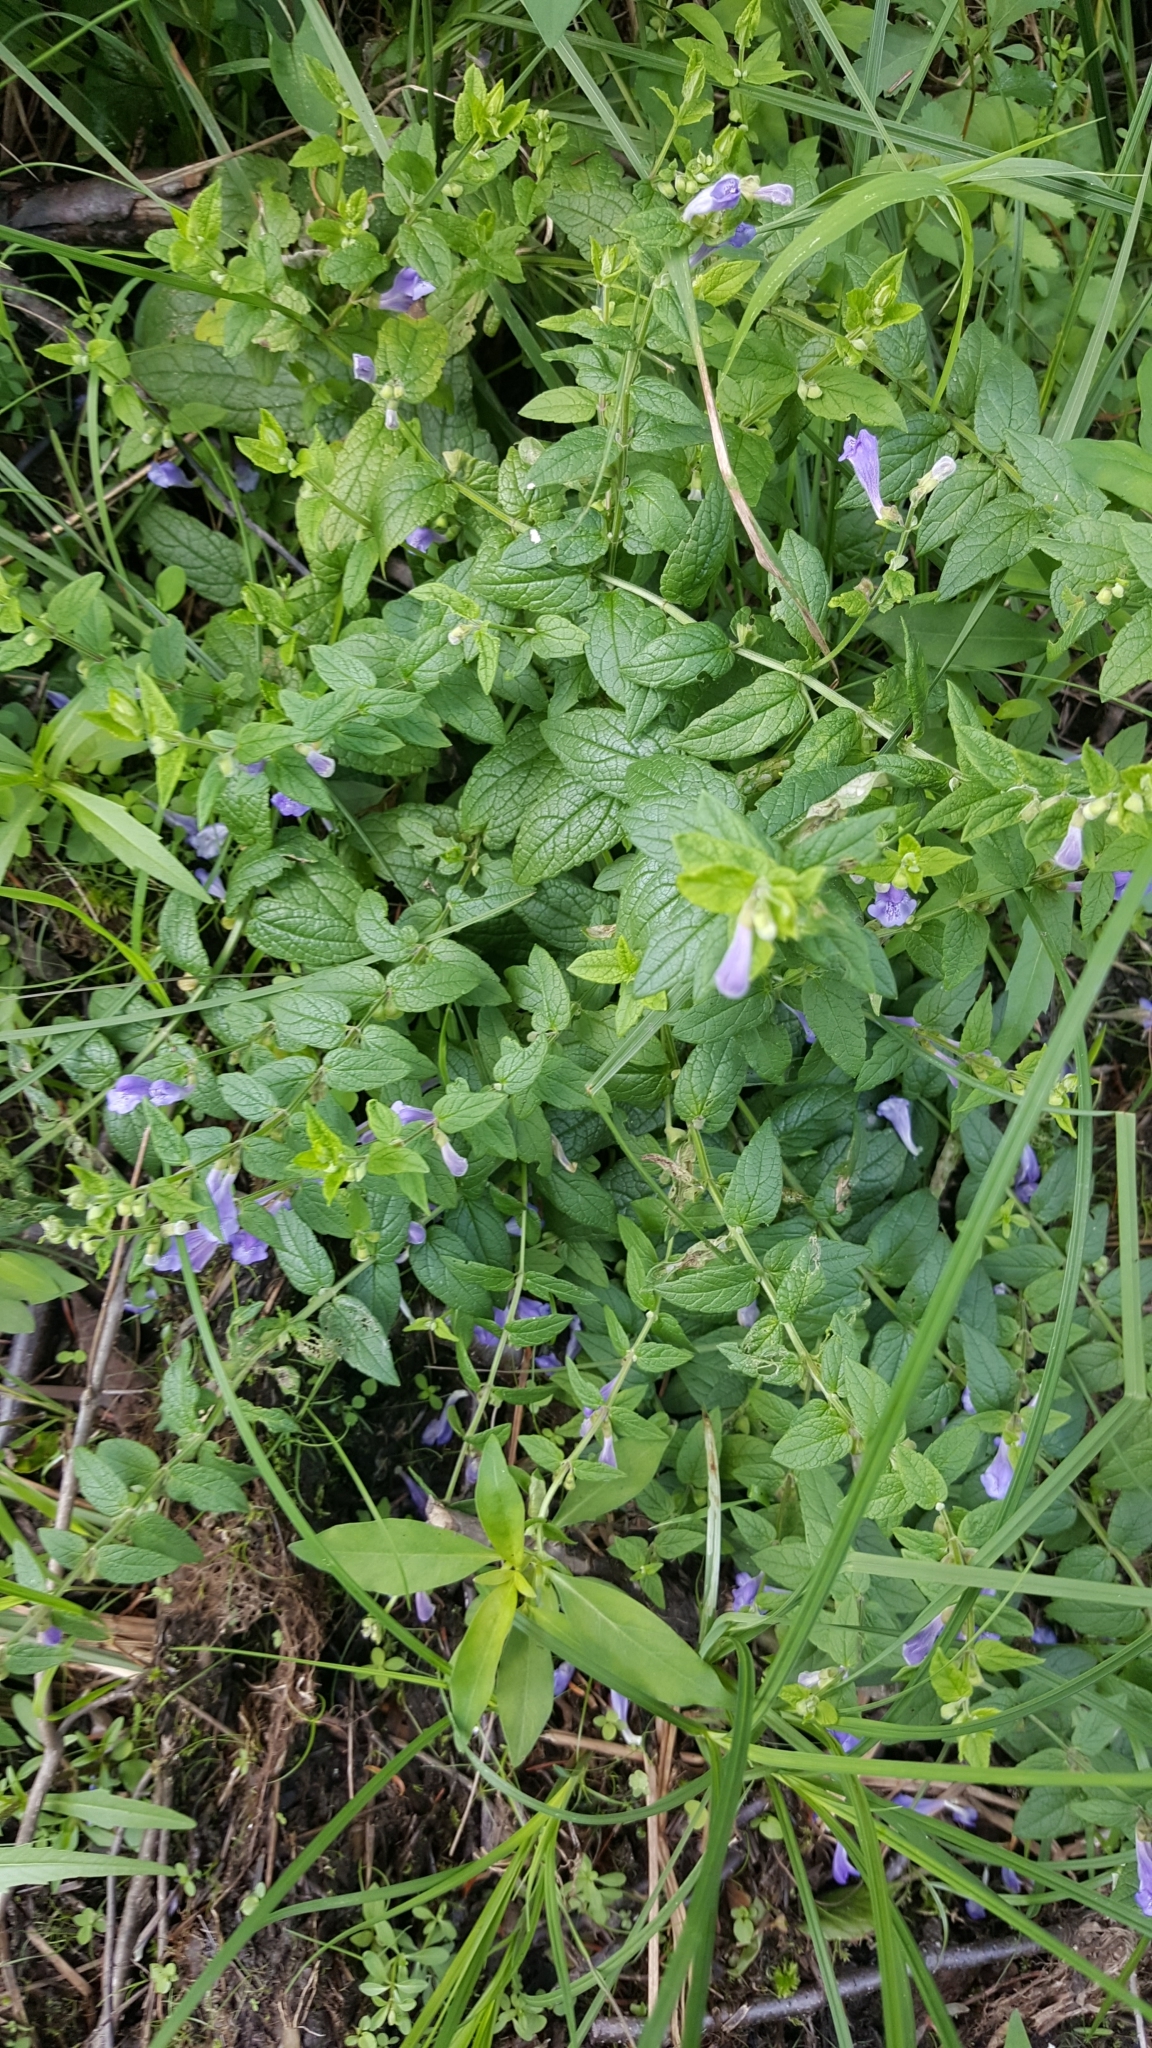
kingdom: Plantae
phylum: Tracheophyta
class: Magnoliopsida
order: Lamiales
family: Lamiaceae
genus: Scutellaria
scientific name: Scutellaria galericulata
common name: Skullcap
